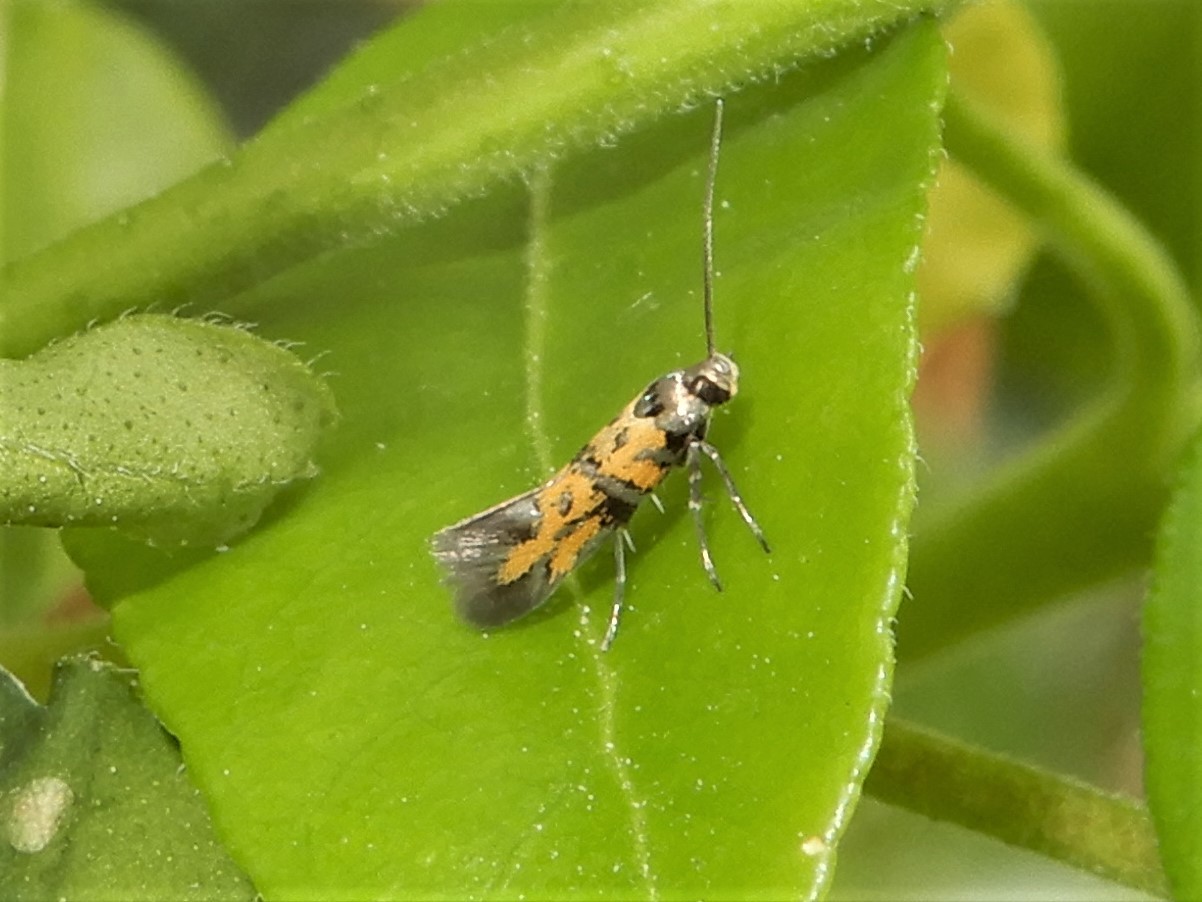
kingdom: Animalia
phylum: Arthropoda
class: Insecta
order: Lepidoptera
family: Gelechiidae
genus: Chrysoesthia
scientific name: Chrysoesthia drurella
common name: Flame neb
